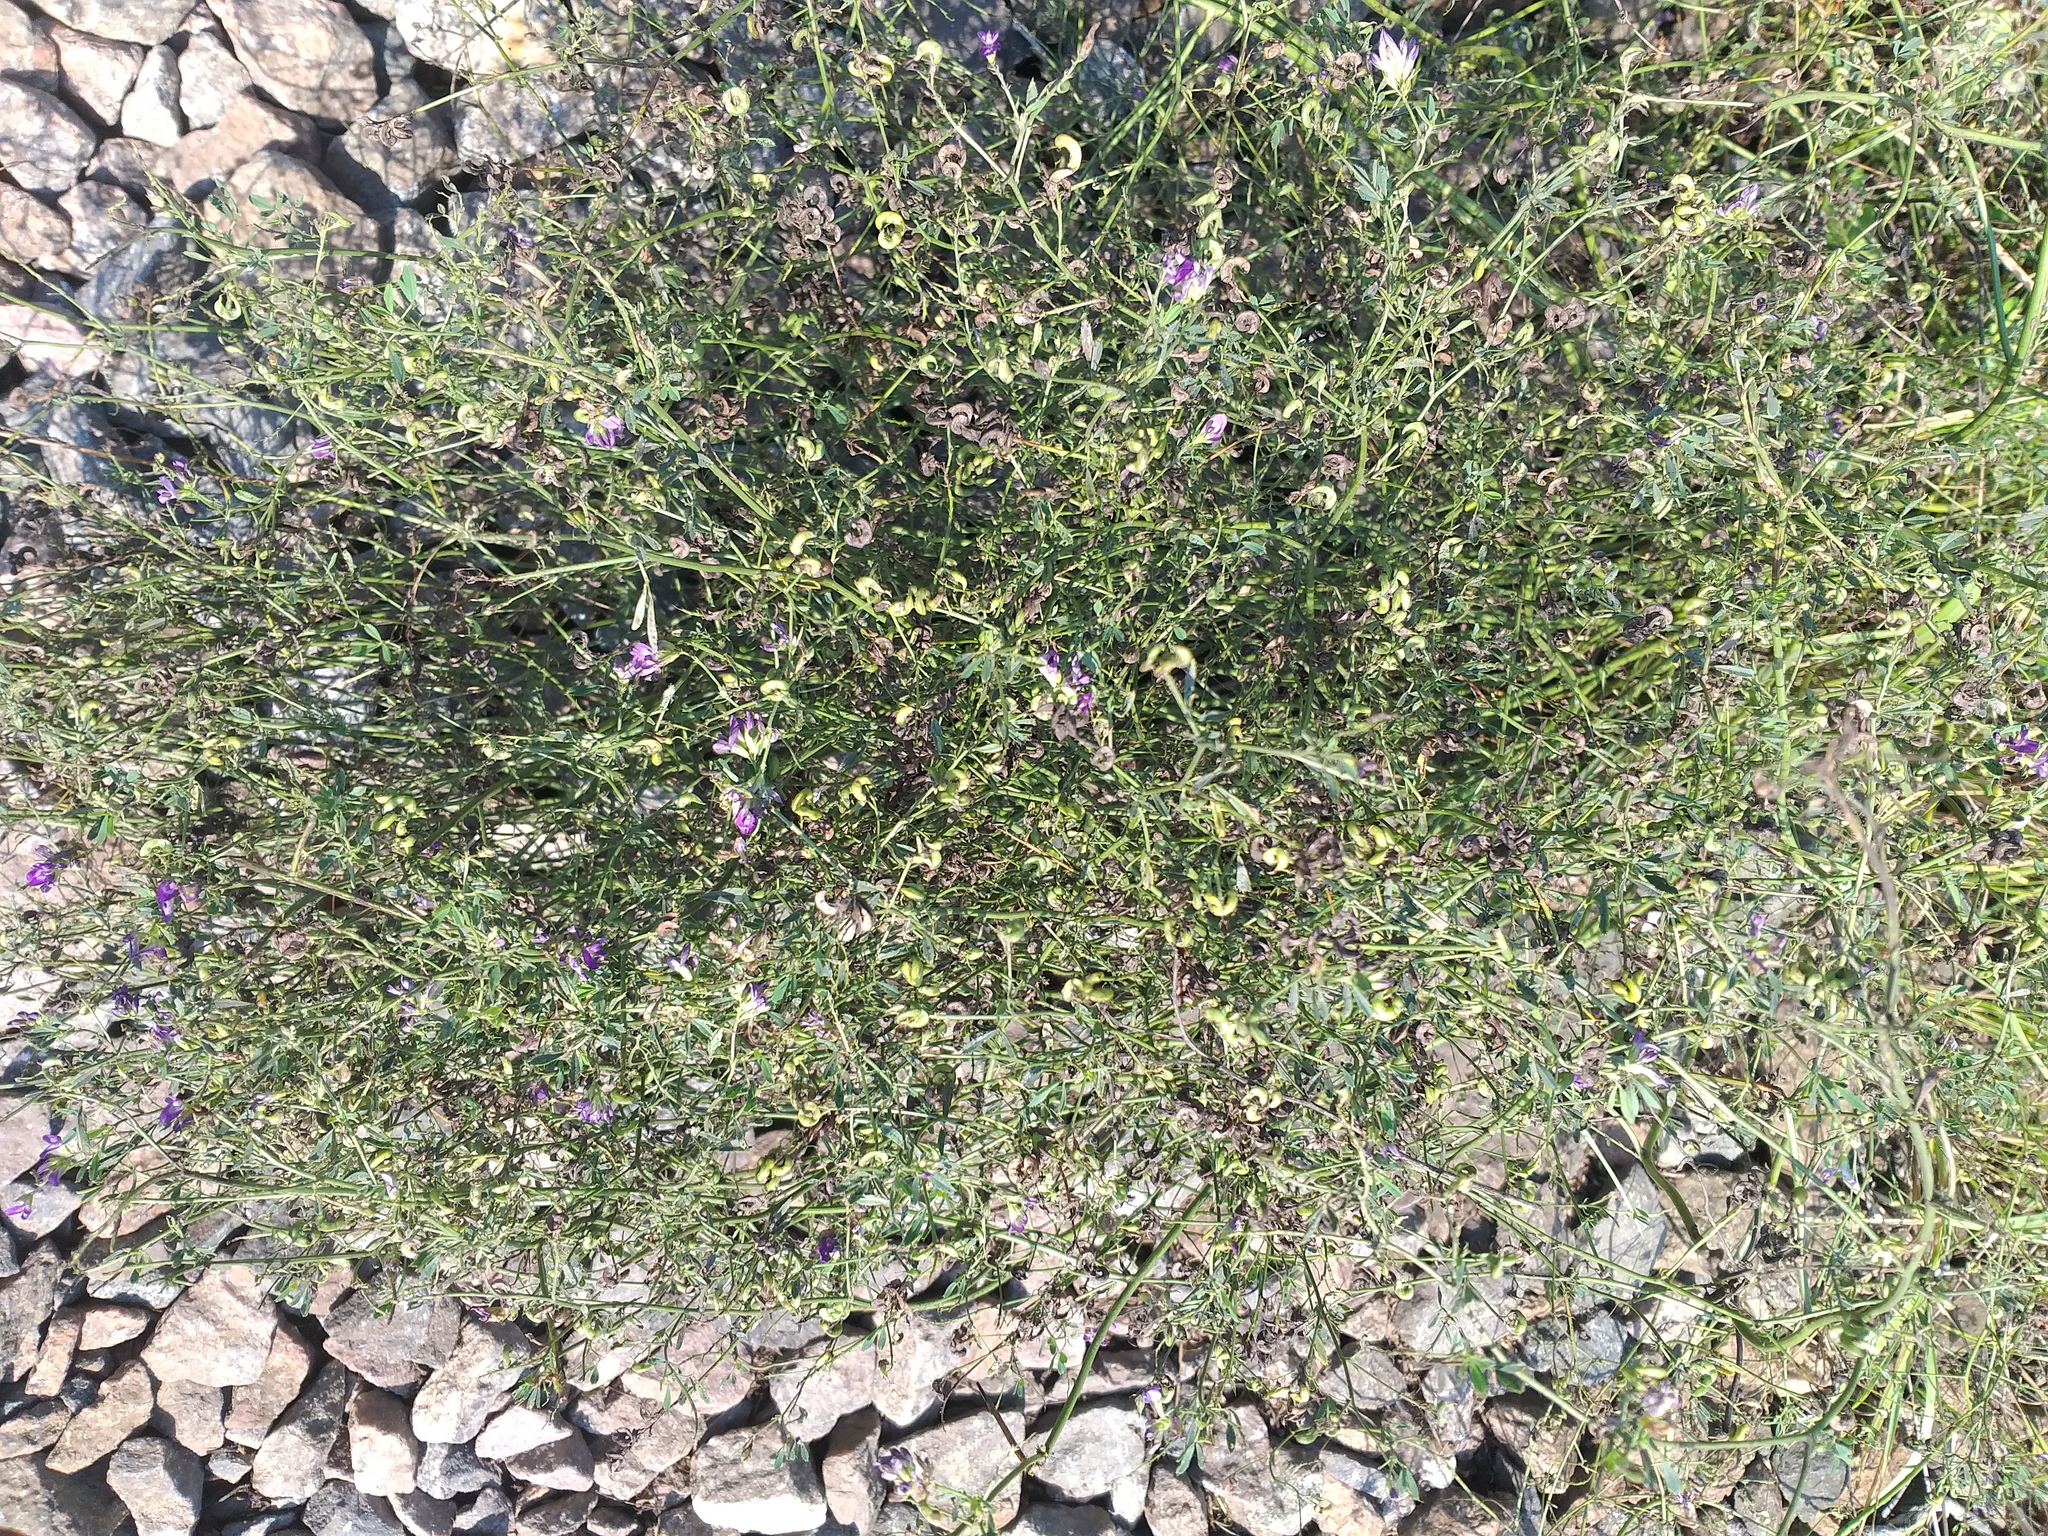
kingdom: Plantae
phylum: Tracheophyta
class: Magnoliopsida
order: Fabales
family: Fabaceae
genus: Medicago
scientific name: Medicago varia
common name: Sand lucerne
